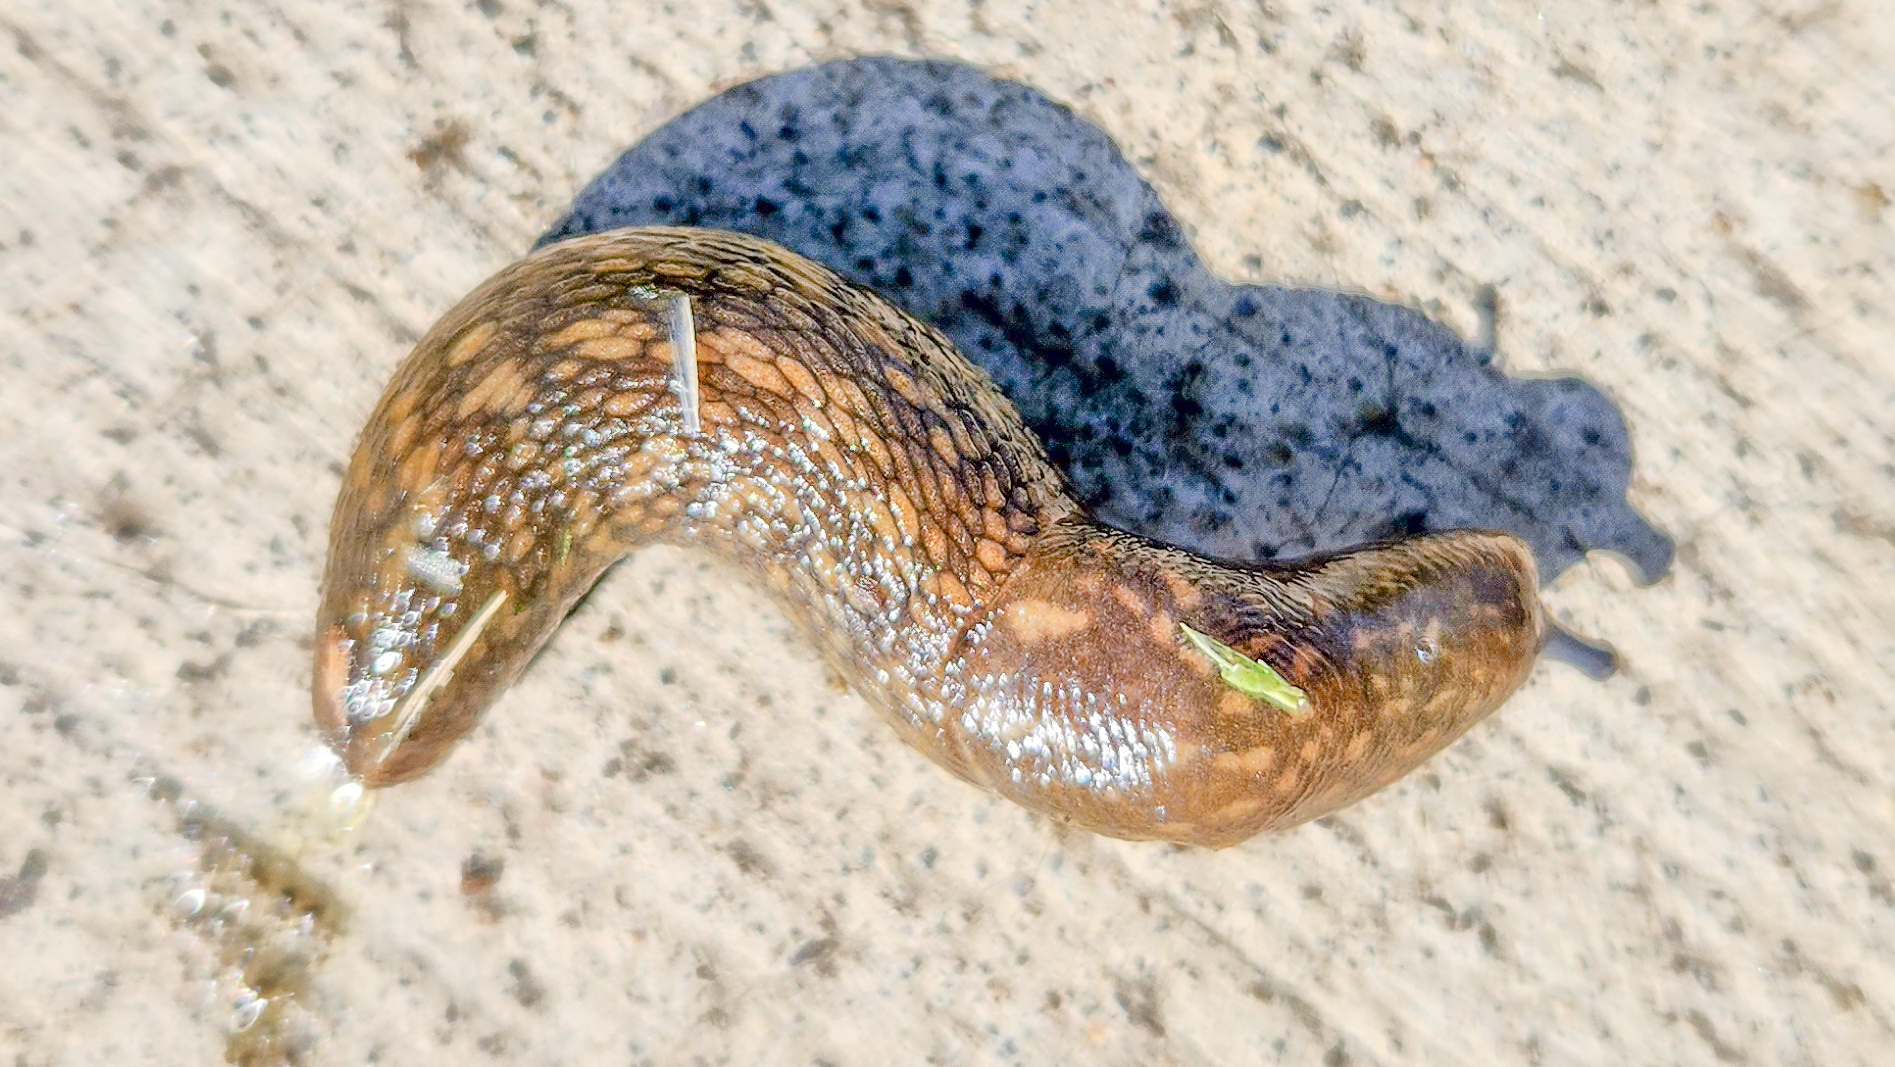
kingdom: Animalia
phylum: Mollusca
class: Gastropoda
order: Stylommatophora
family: Limacidae
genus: Limacus
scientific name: Limacus flavus
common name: Yellow gardenslug
